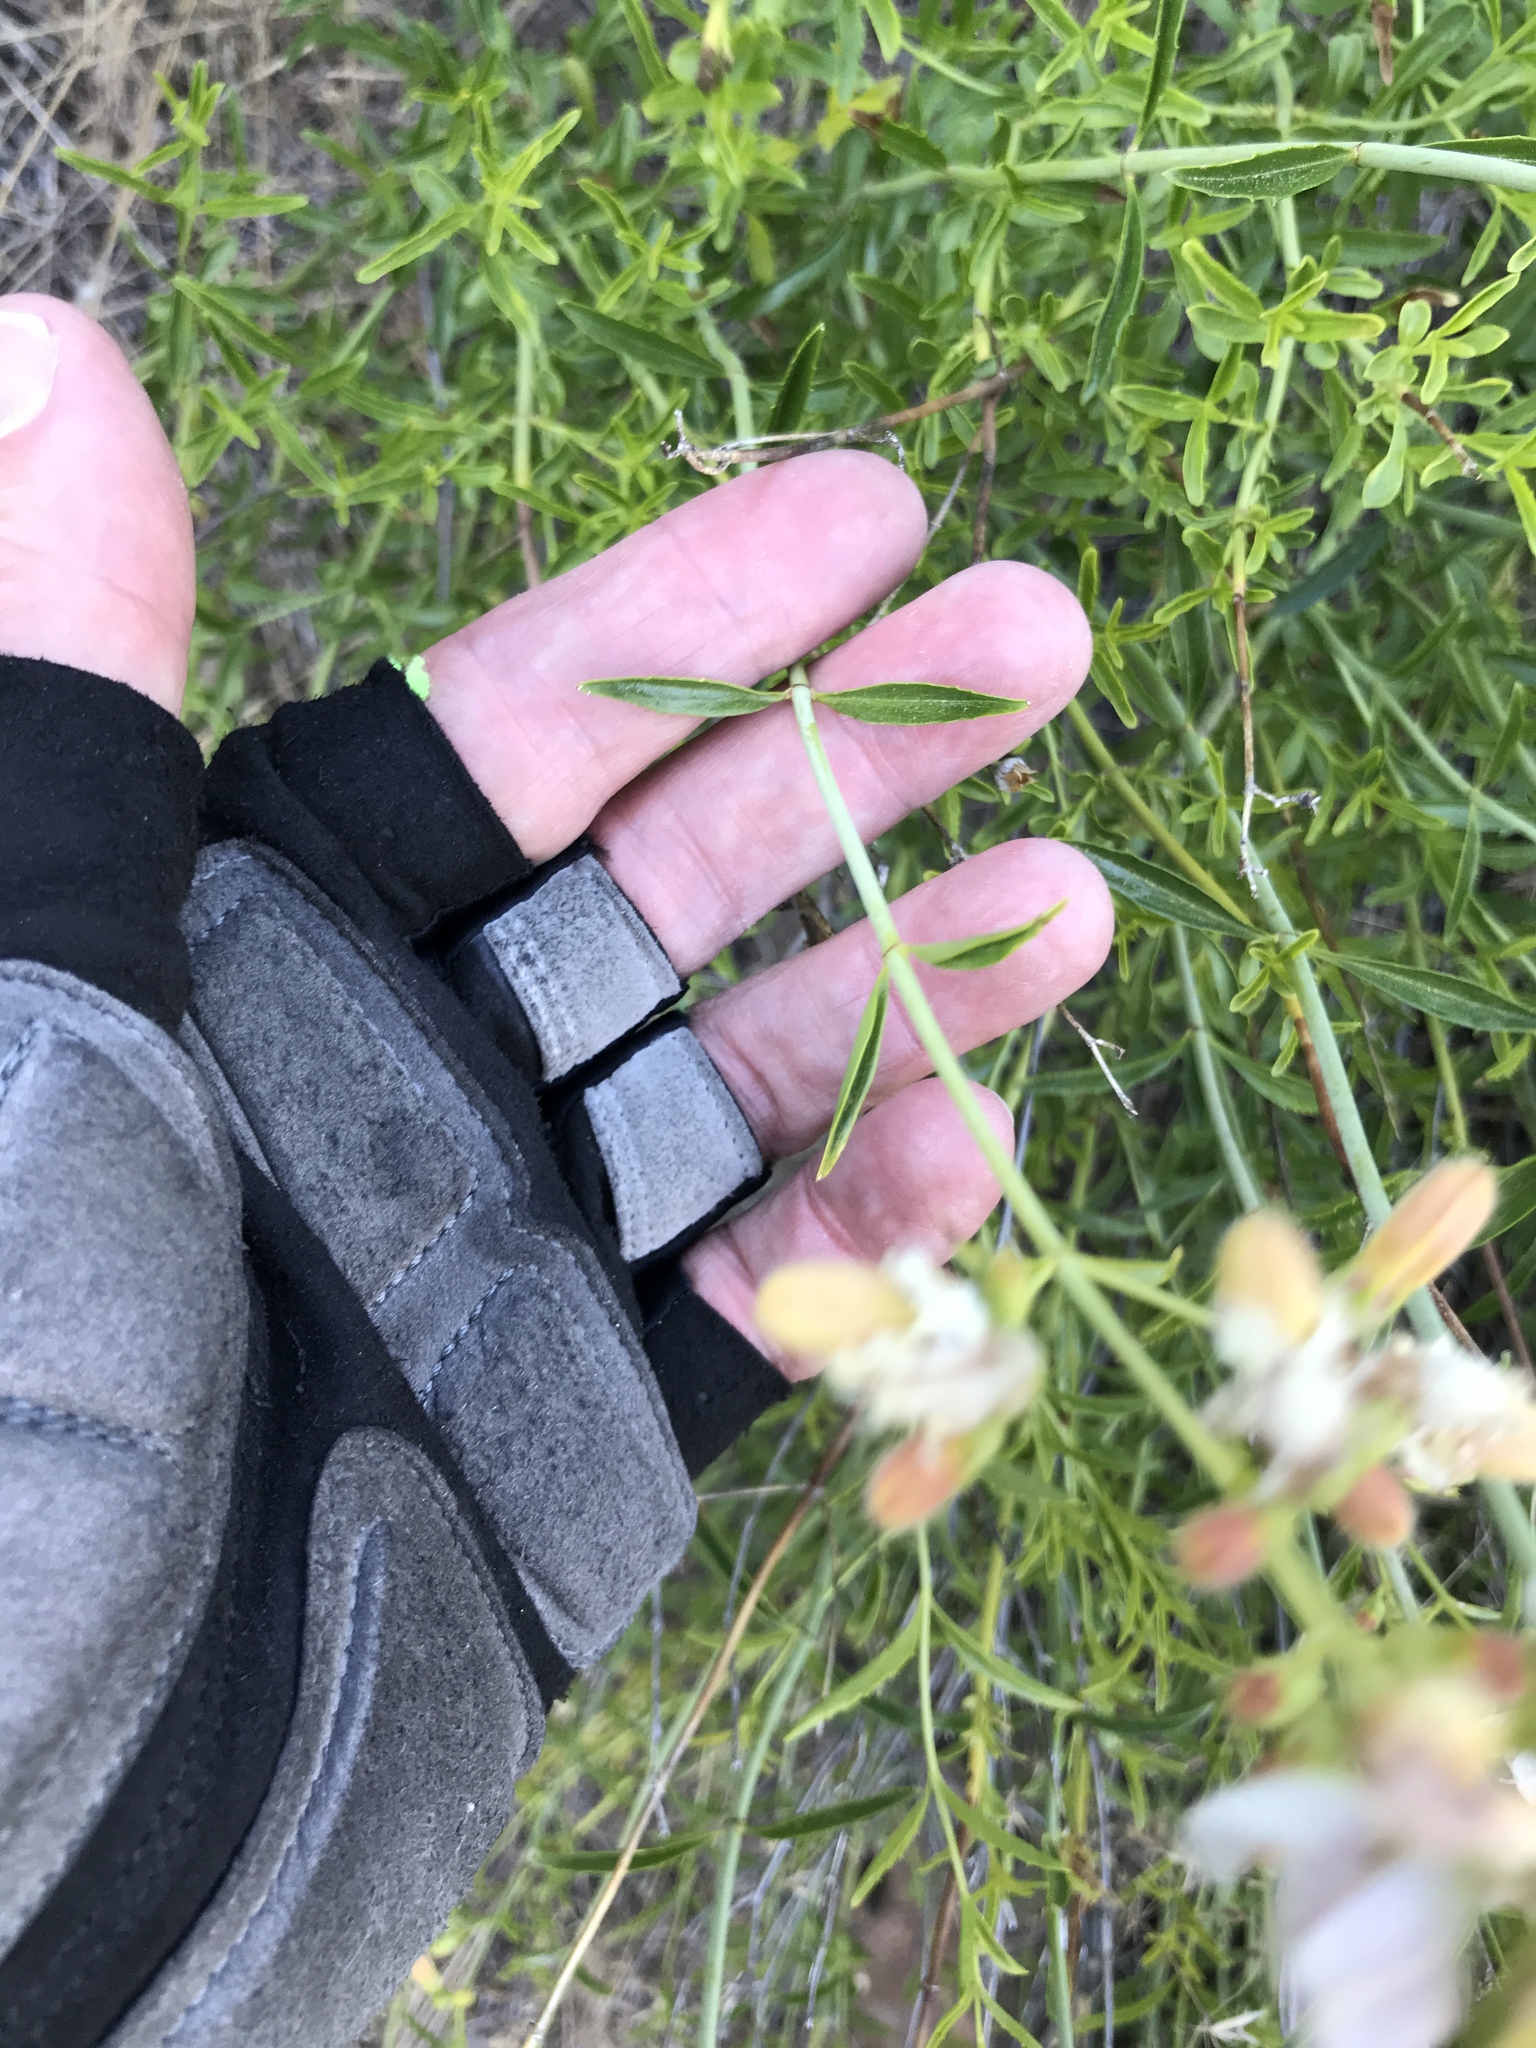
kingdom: Plantae
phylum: Tracheophyta
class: Magnoliopsida
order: Lamiales
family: Plantaginaceae
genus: Keckiella
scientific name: Keckiella breviflora
